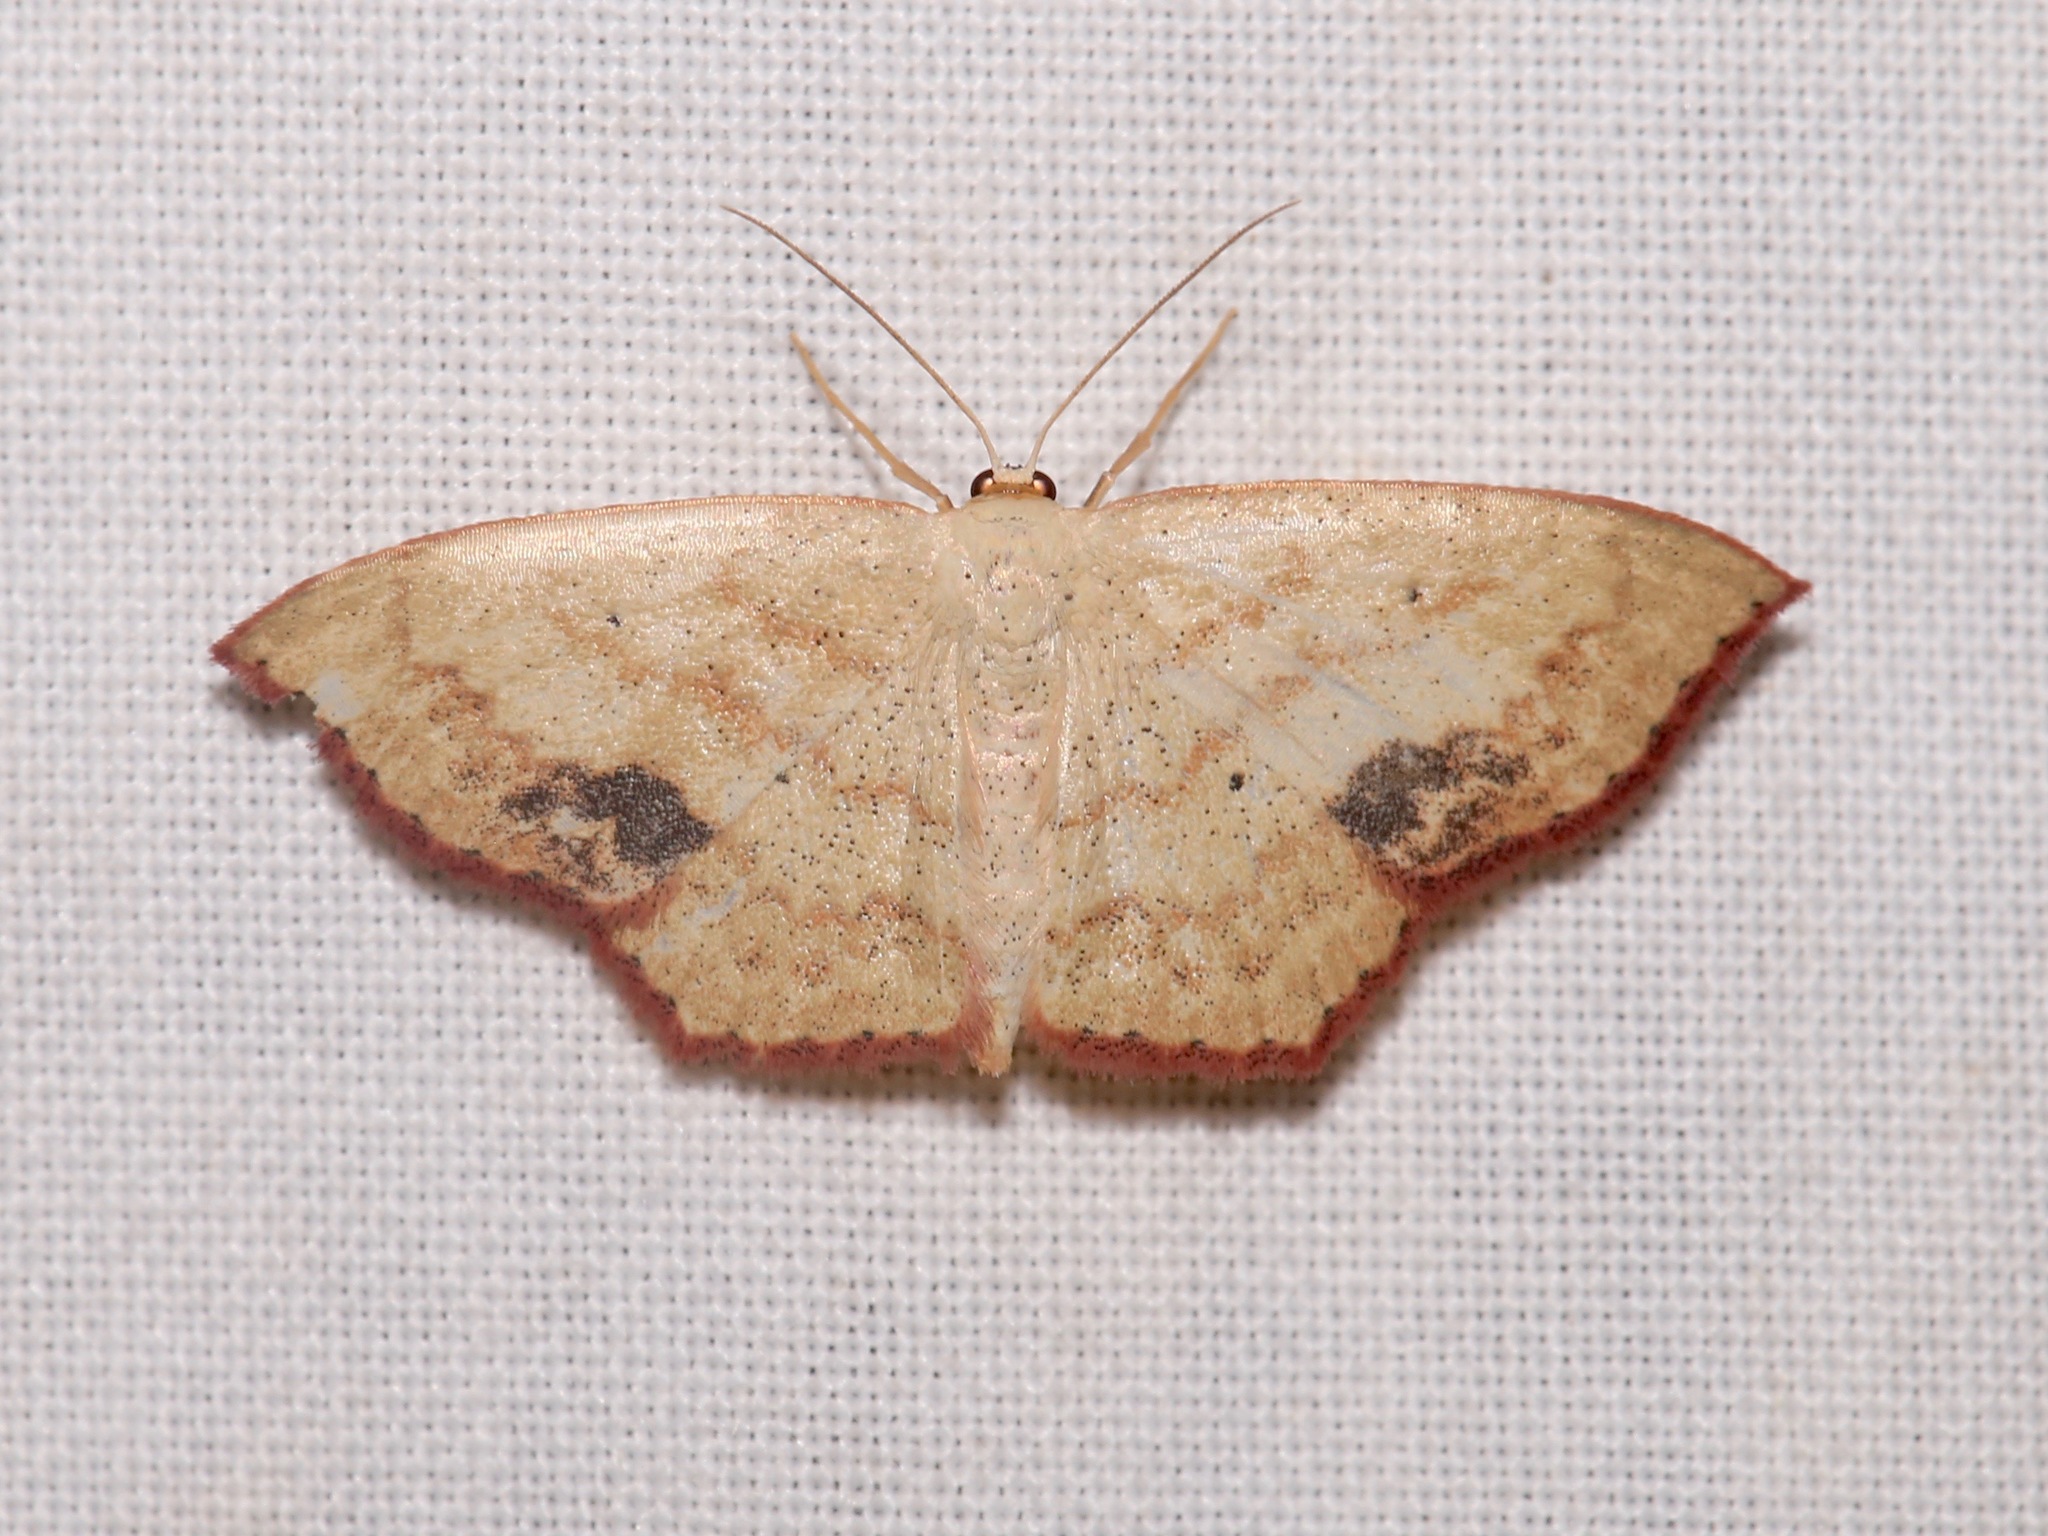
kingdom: Animalia
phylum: Arthropoda
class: Insecta
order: Lepidoptera
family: Geometridae
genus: Scopula
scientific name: Scopula timandrata
